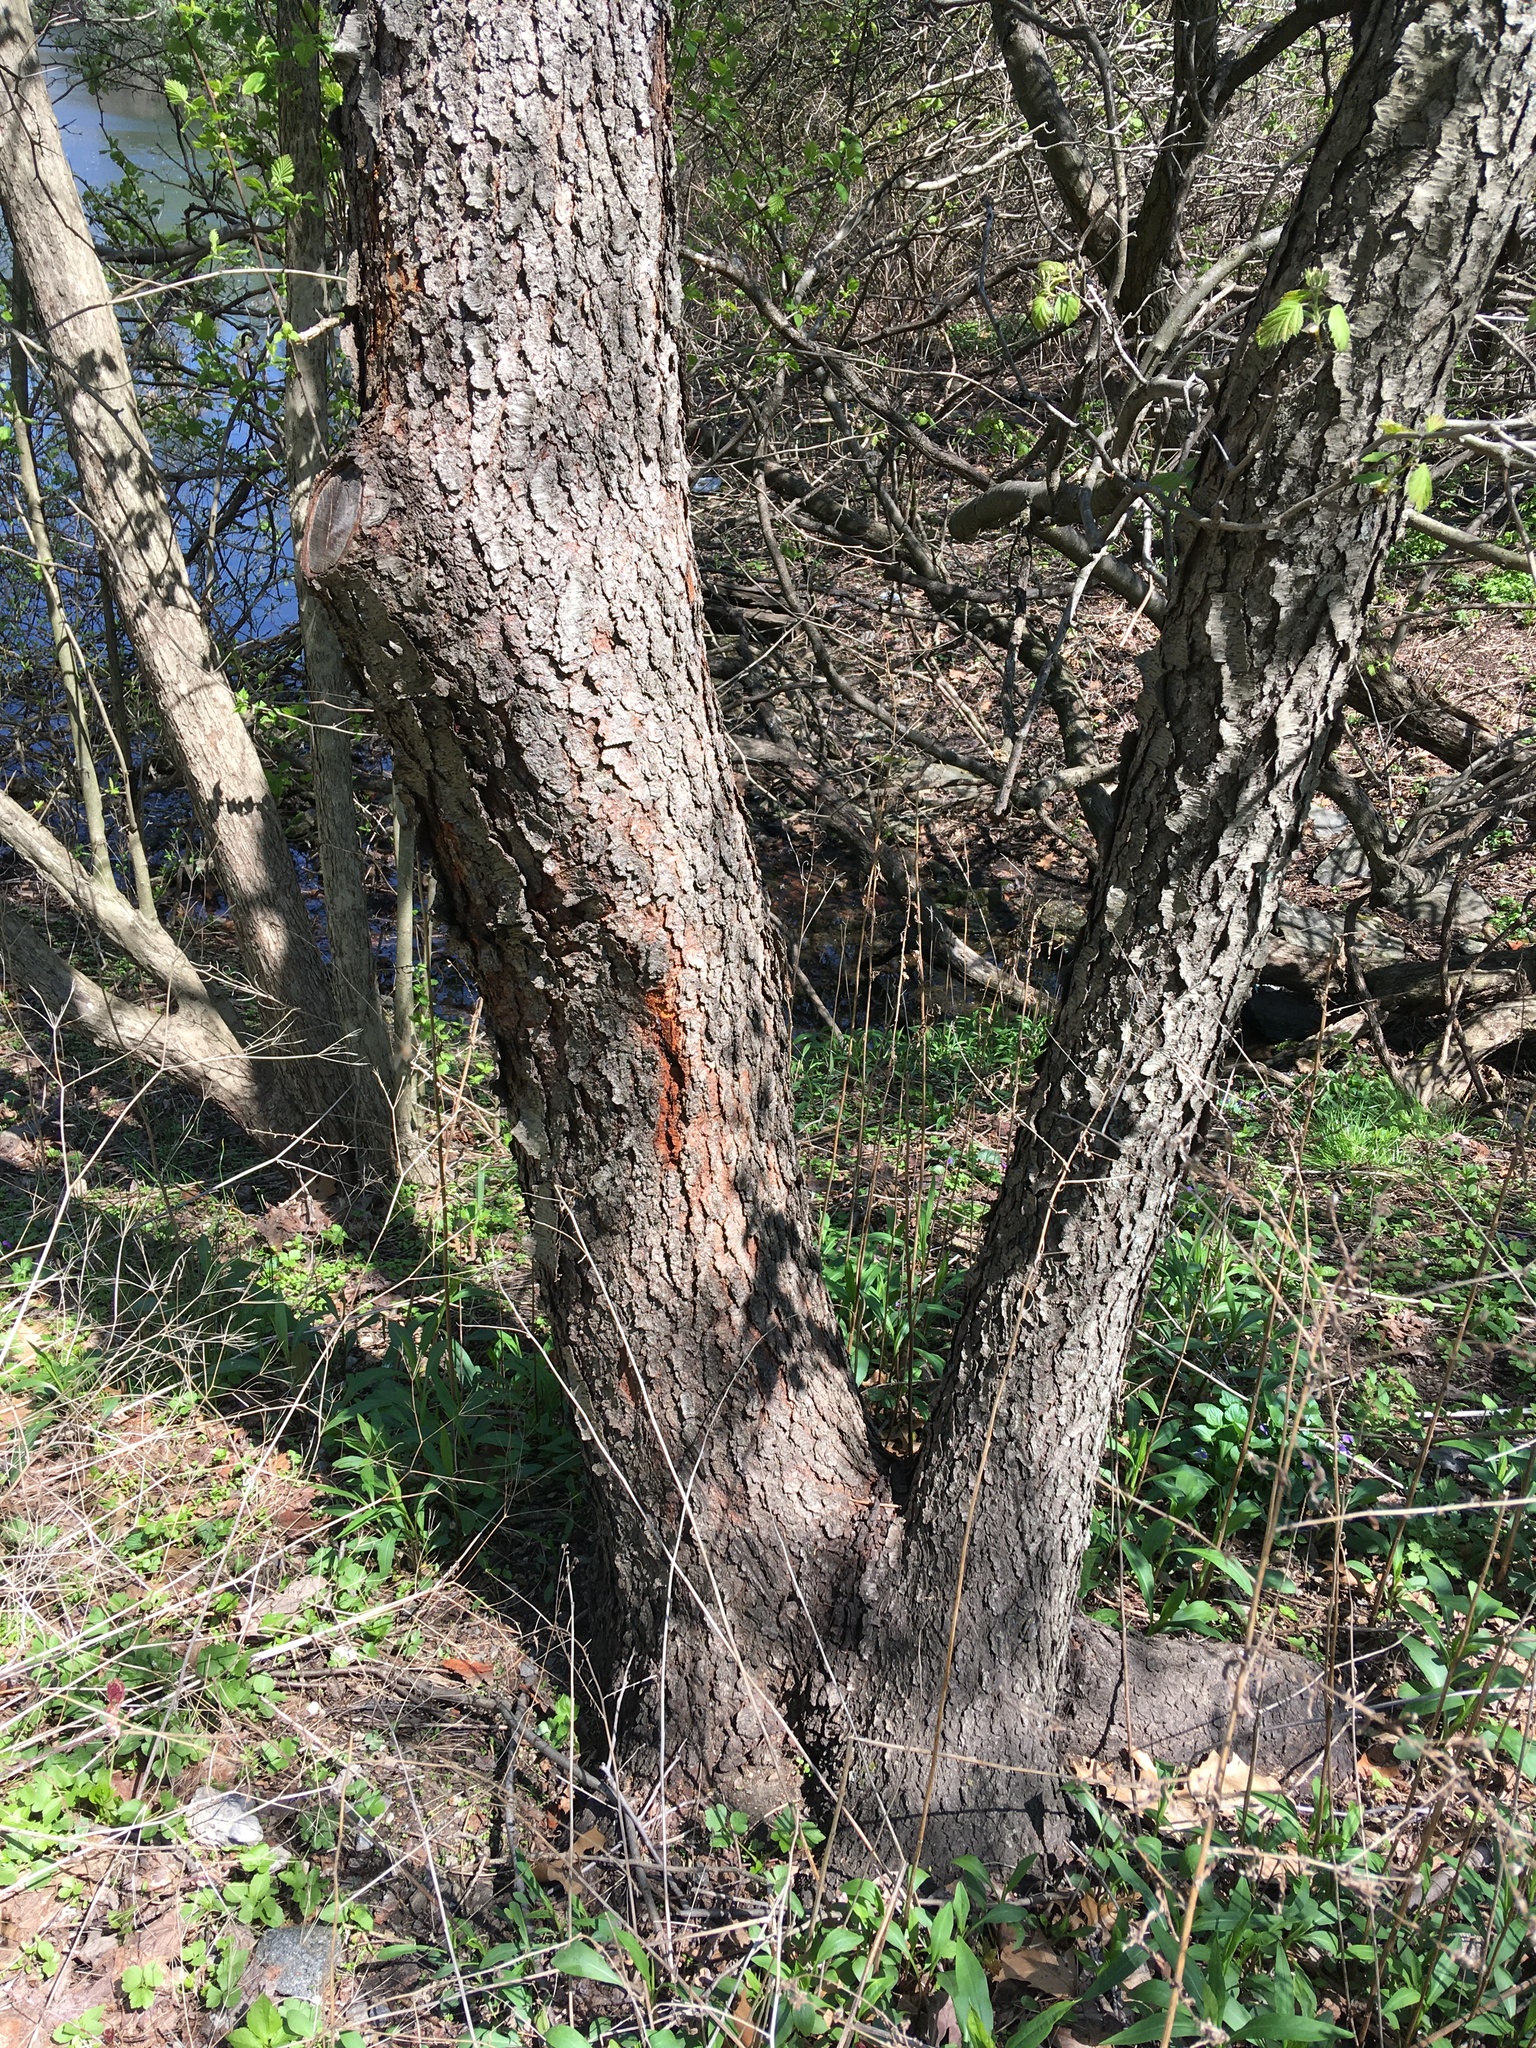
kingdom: Plantae
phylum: Tracheophyta
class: Magnoliopsida
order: Rosales
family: Rosaceae
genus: Prunus
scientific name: Prunus serotina
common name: Black cherry
